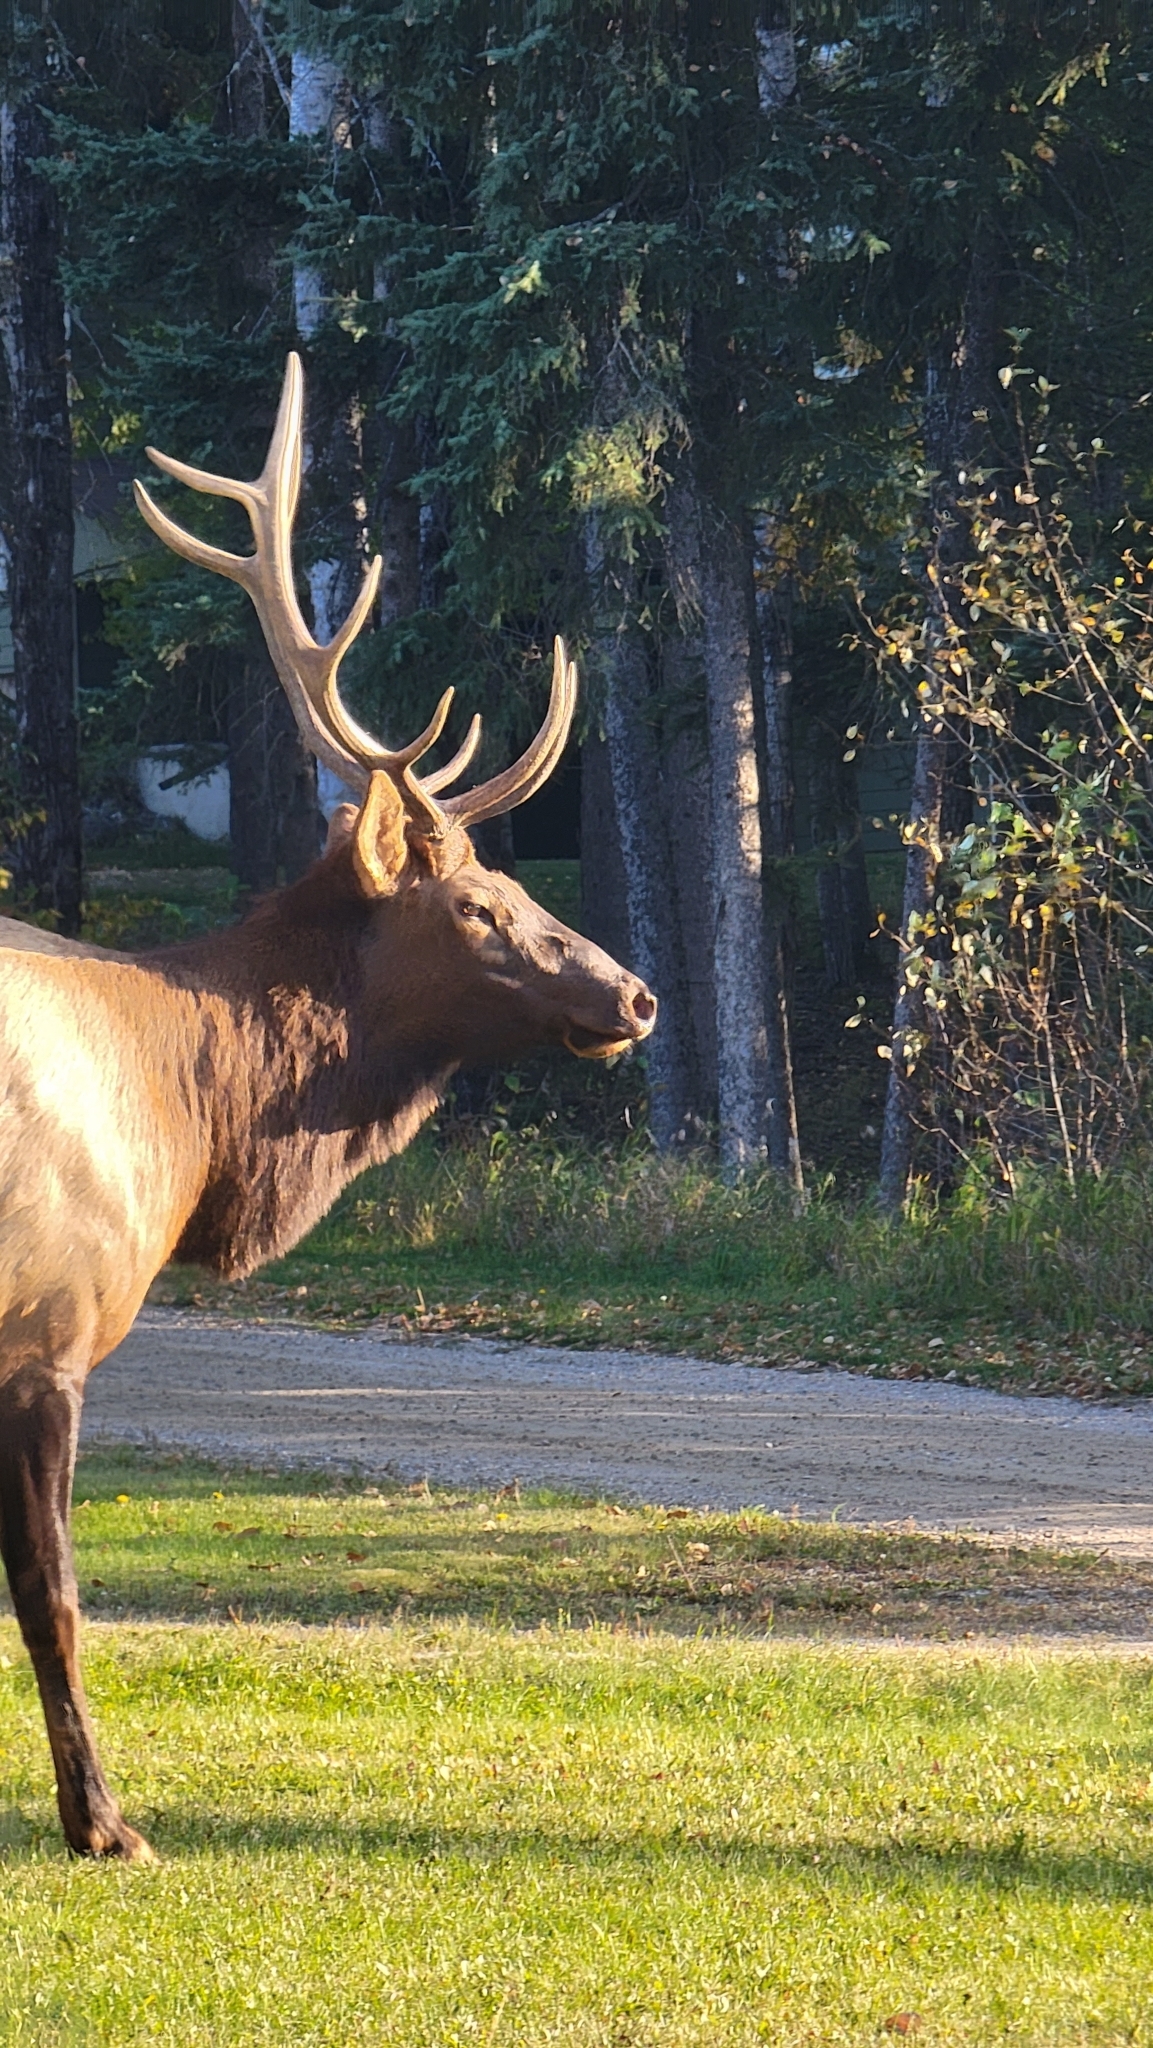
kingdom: Animalia
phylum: Chordata
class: Mammalia
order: Artiodactyla
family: Cervidae
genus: Cervus
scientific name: Cervus elaphus
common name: Red deer
